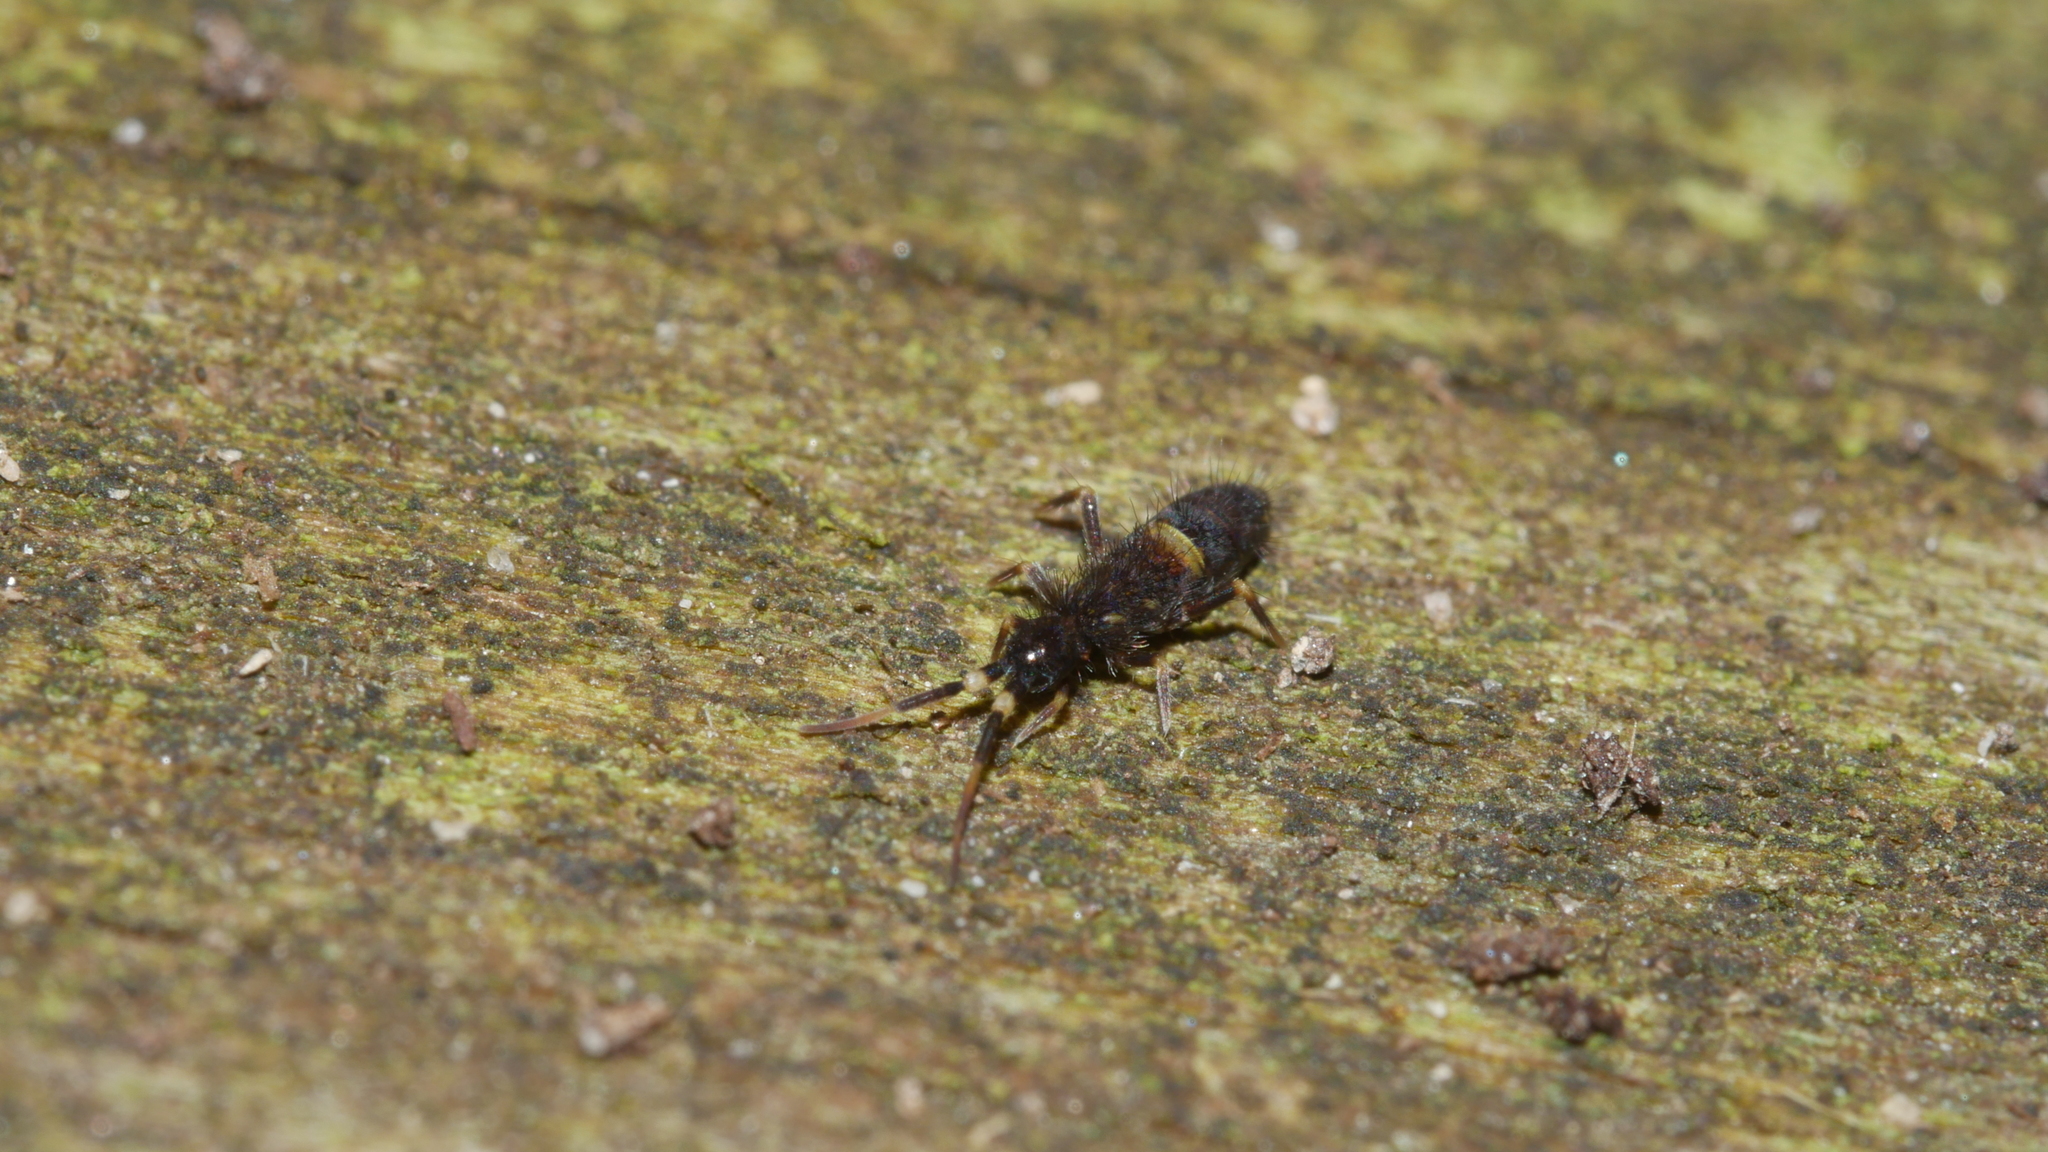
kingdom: Animalia
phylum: Arthropoda
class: Collembola
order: Entomobryomorpha
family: Orchesellidae
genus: Orchesella
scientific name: Orchesella cincta
